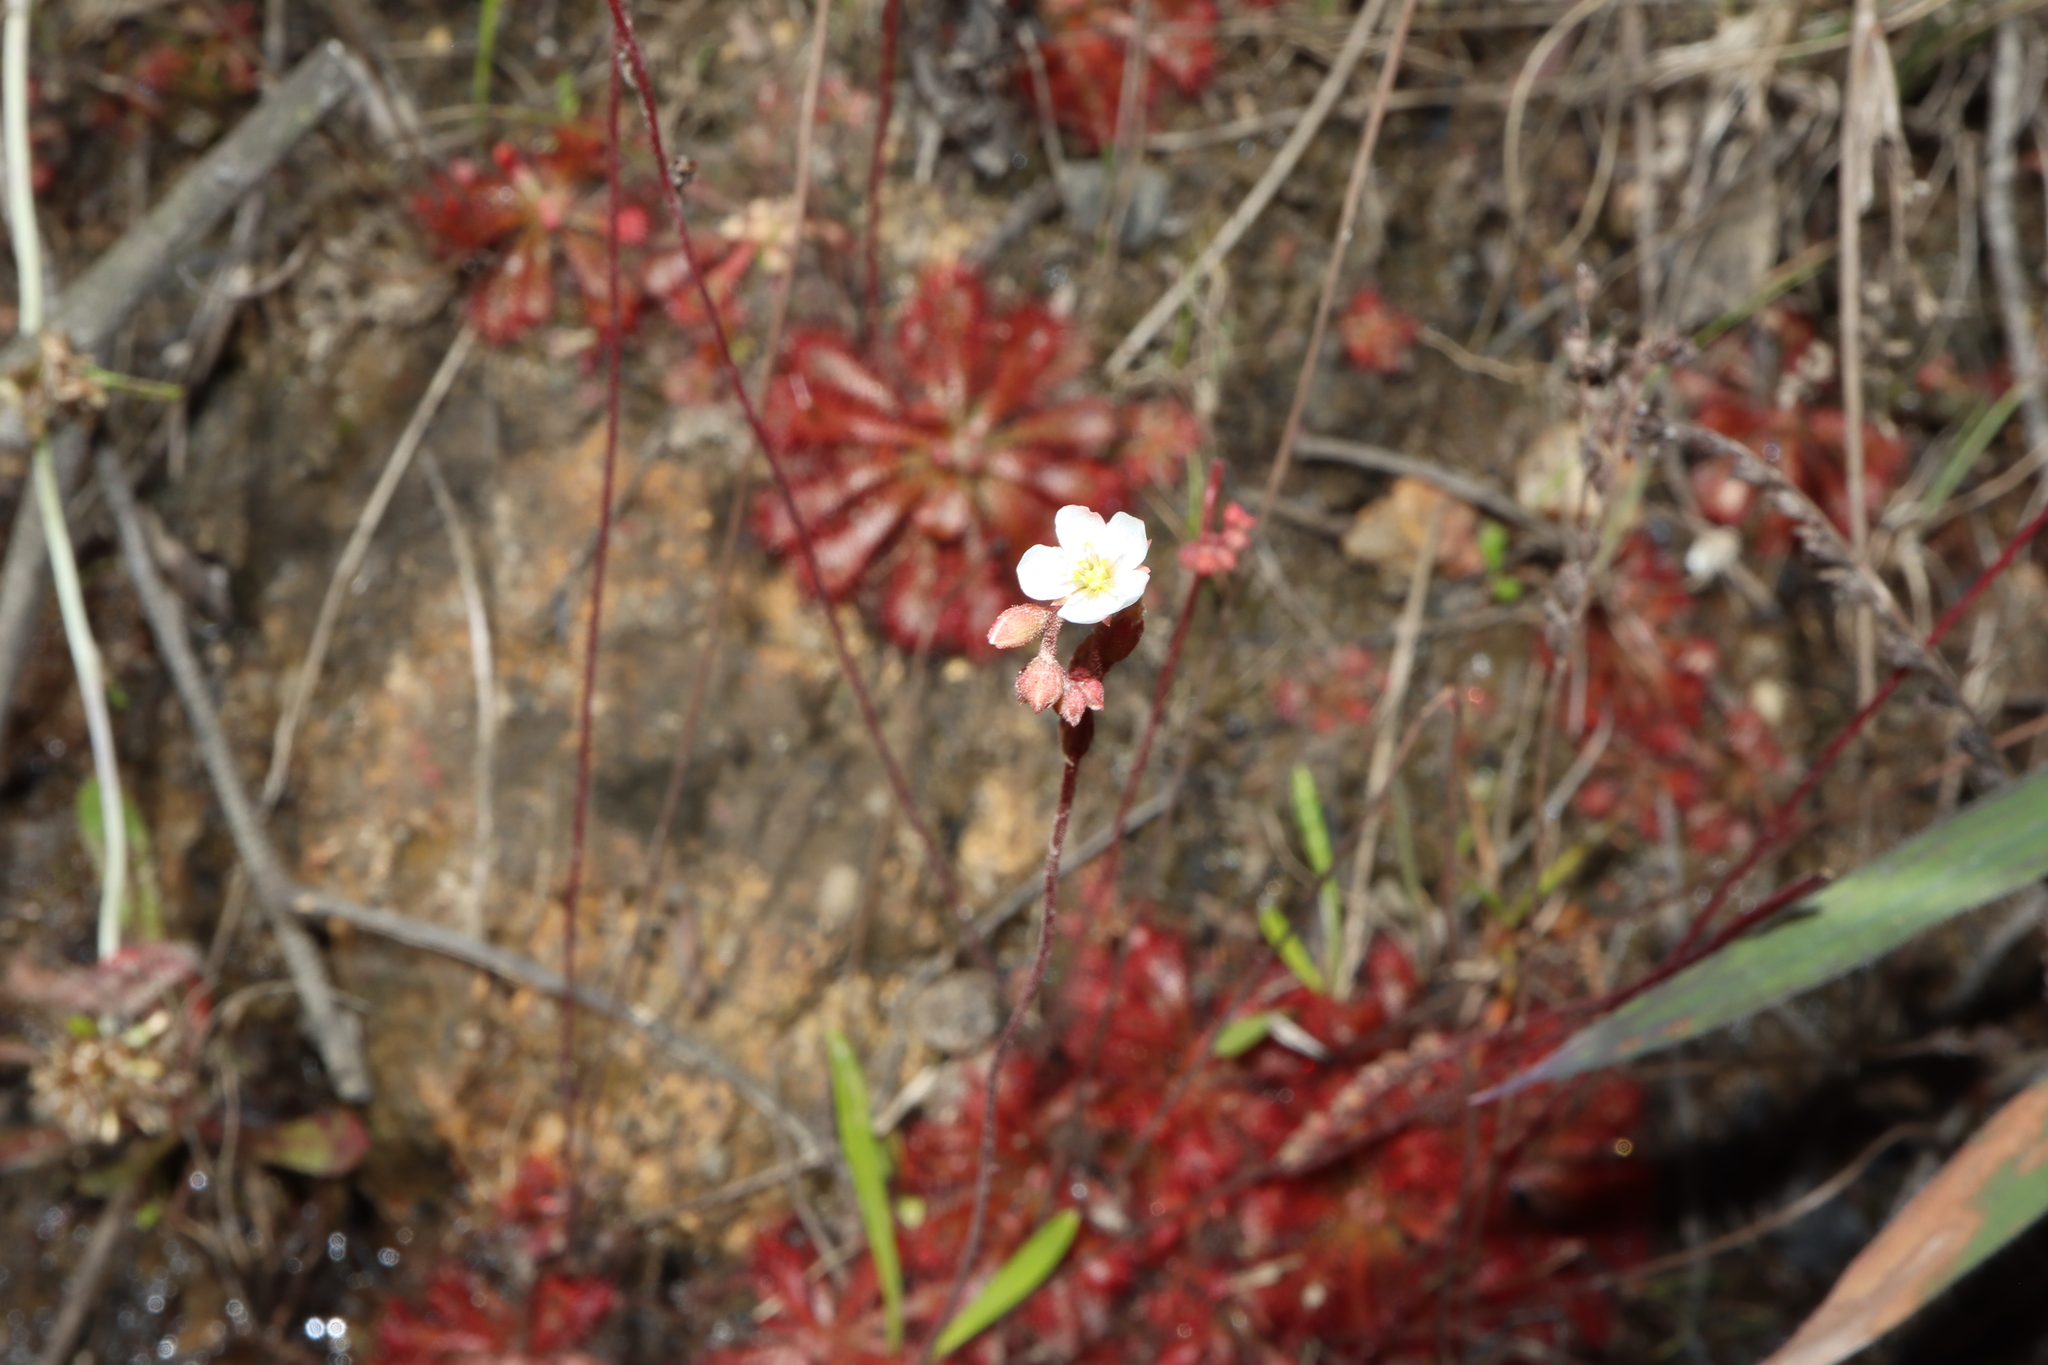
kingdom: Plantae
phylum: Tracheophyta
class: Magnoliopsida
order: Caryophyllales
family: Droseraceae
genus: Drosera
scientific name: Drosera spatulata
